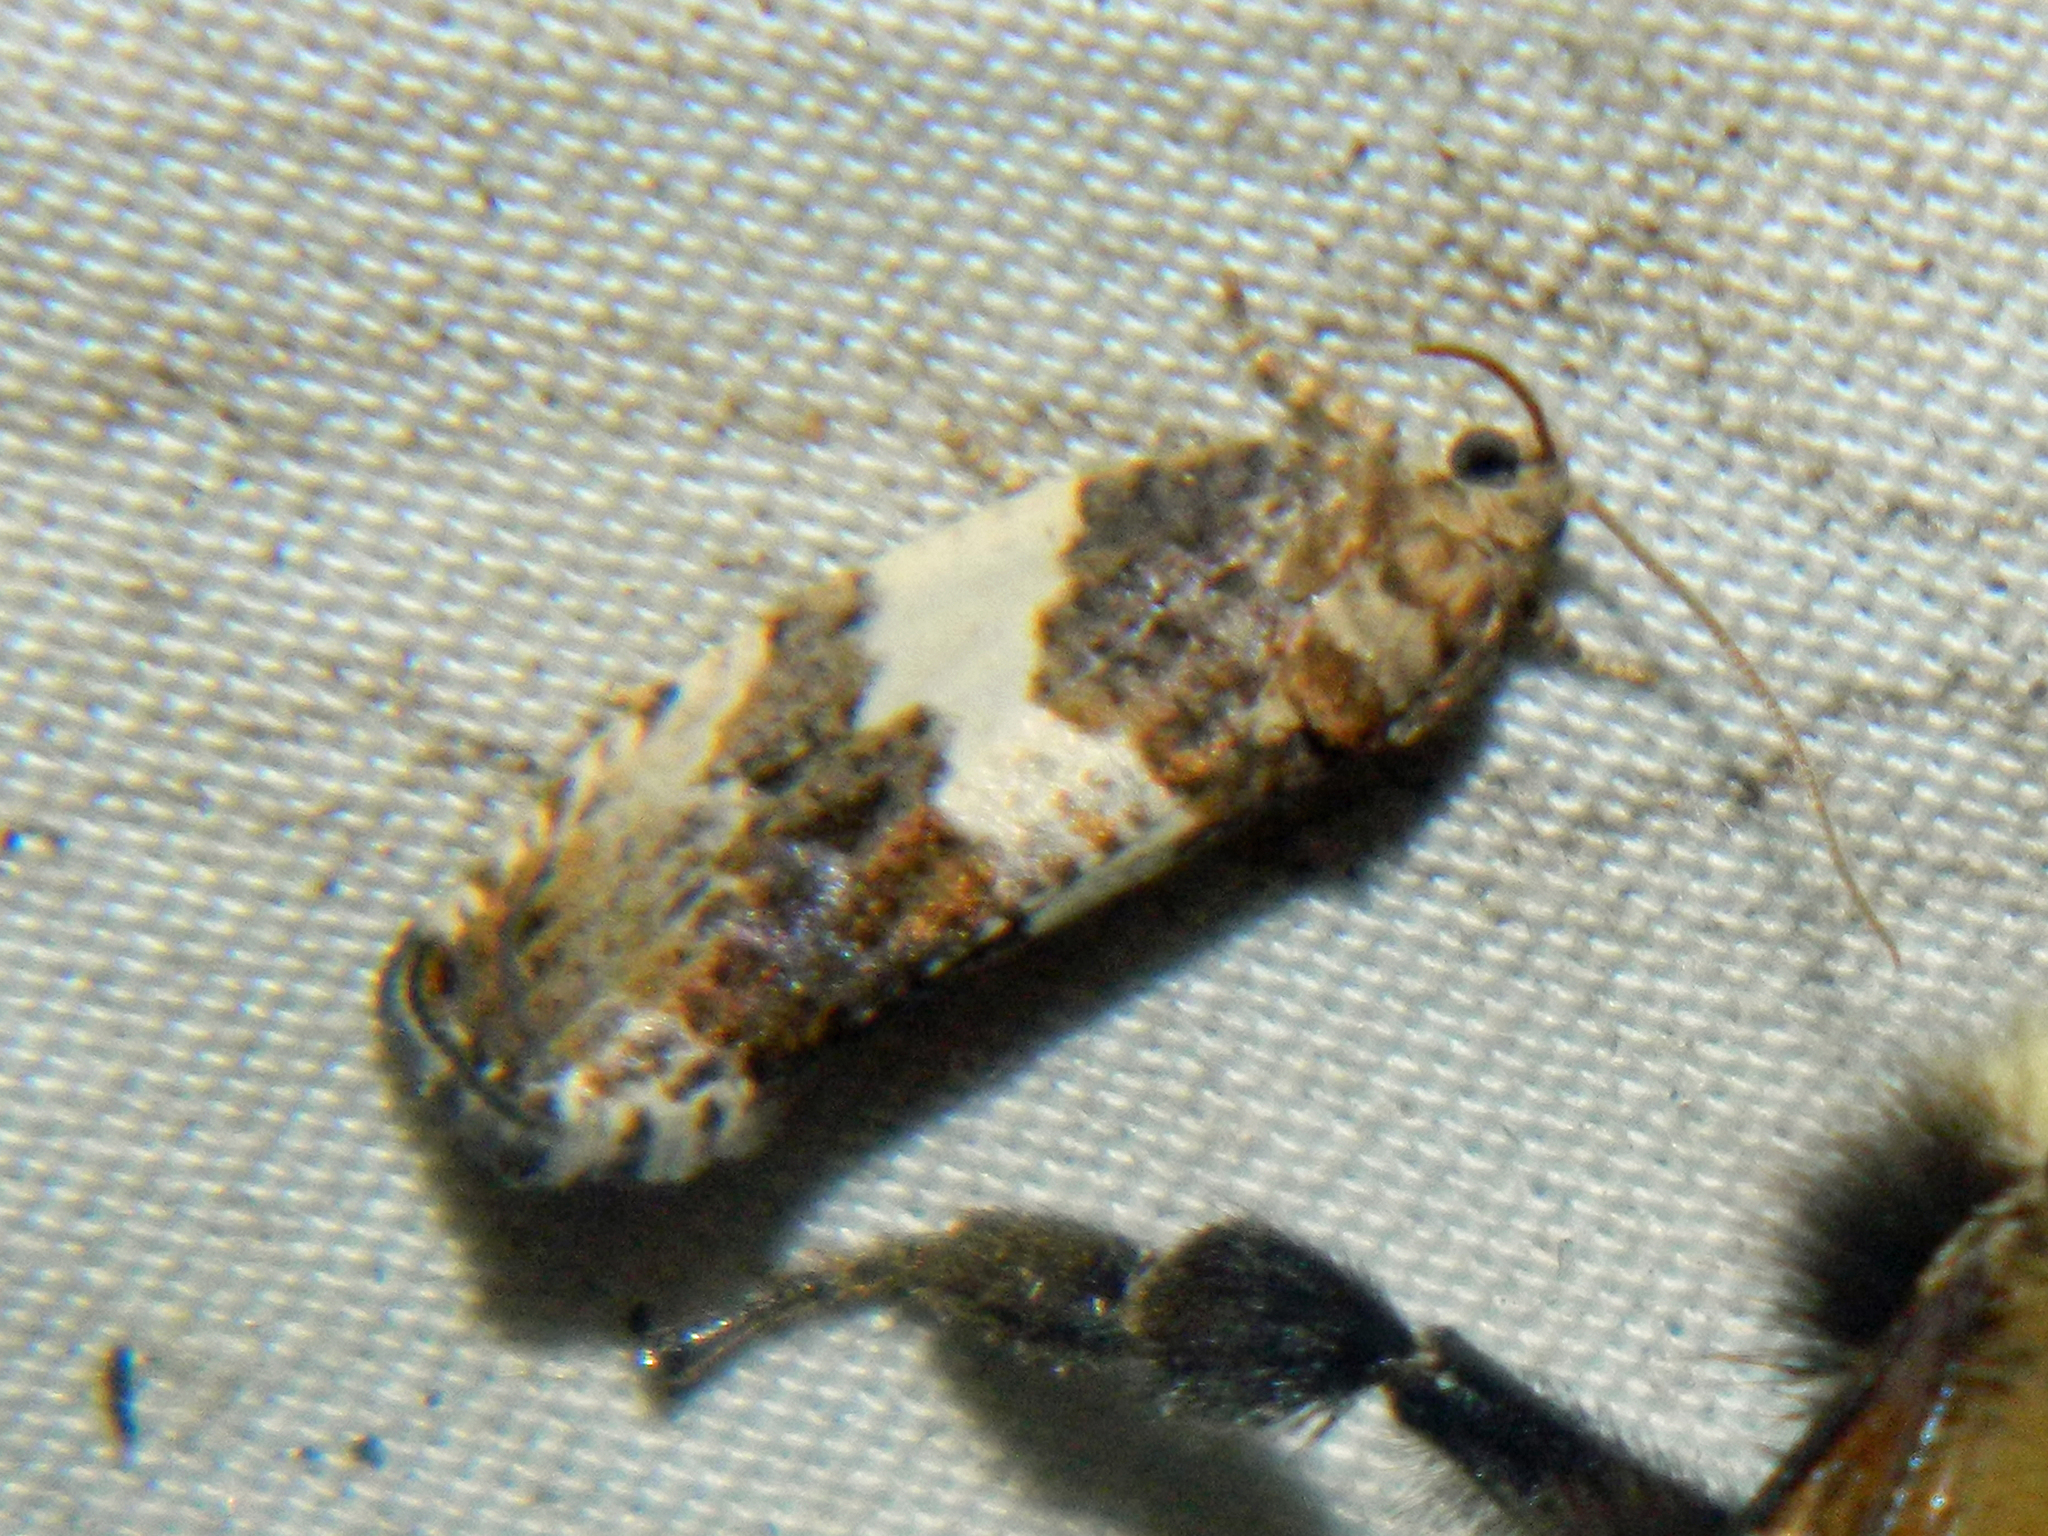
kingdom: Animalia
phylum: Arthropoda
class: Insecta
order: Lepidoptera
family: Tortricidae
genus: Pseudosciaphila
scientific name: Pseudosciaphila duplex
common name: Poplar leafroller moth
